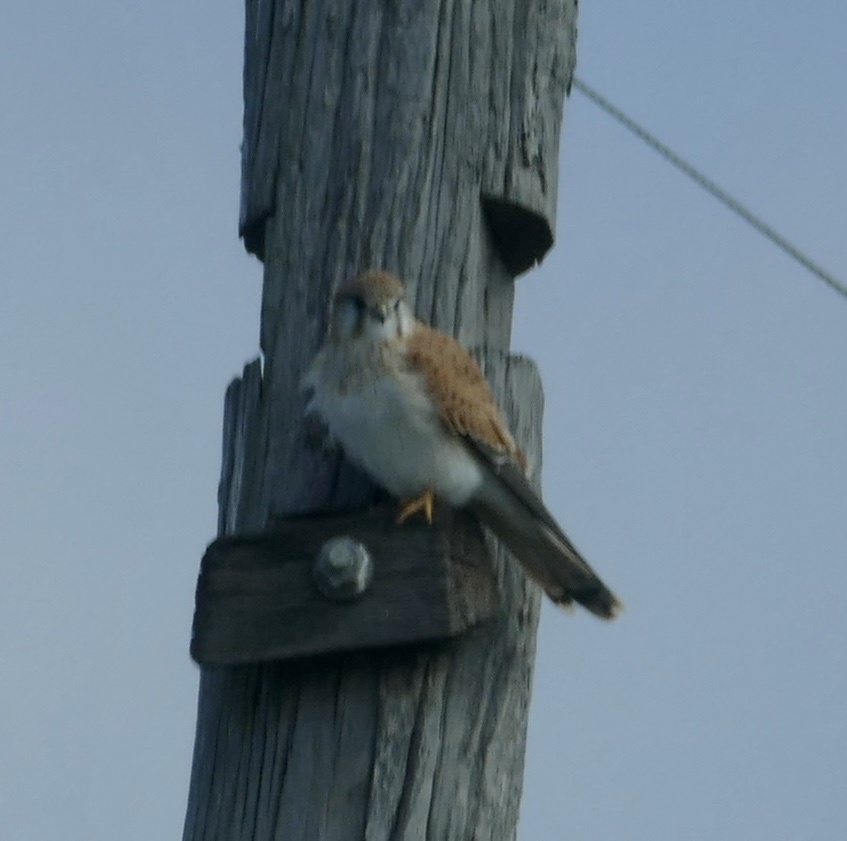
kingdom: Animalia
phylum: Chordata
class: Aves
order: Falconiformes
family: Falconidae
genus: Falco
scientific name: Falco cenchroides
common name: Nankeen kestrel
